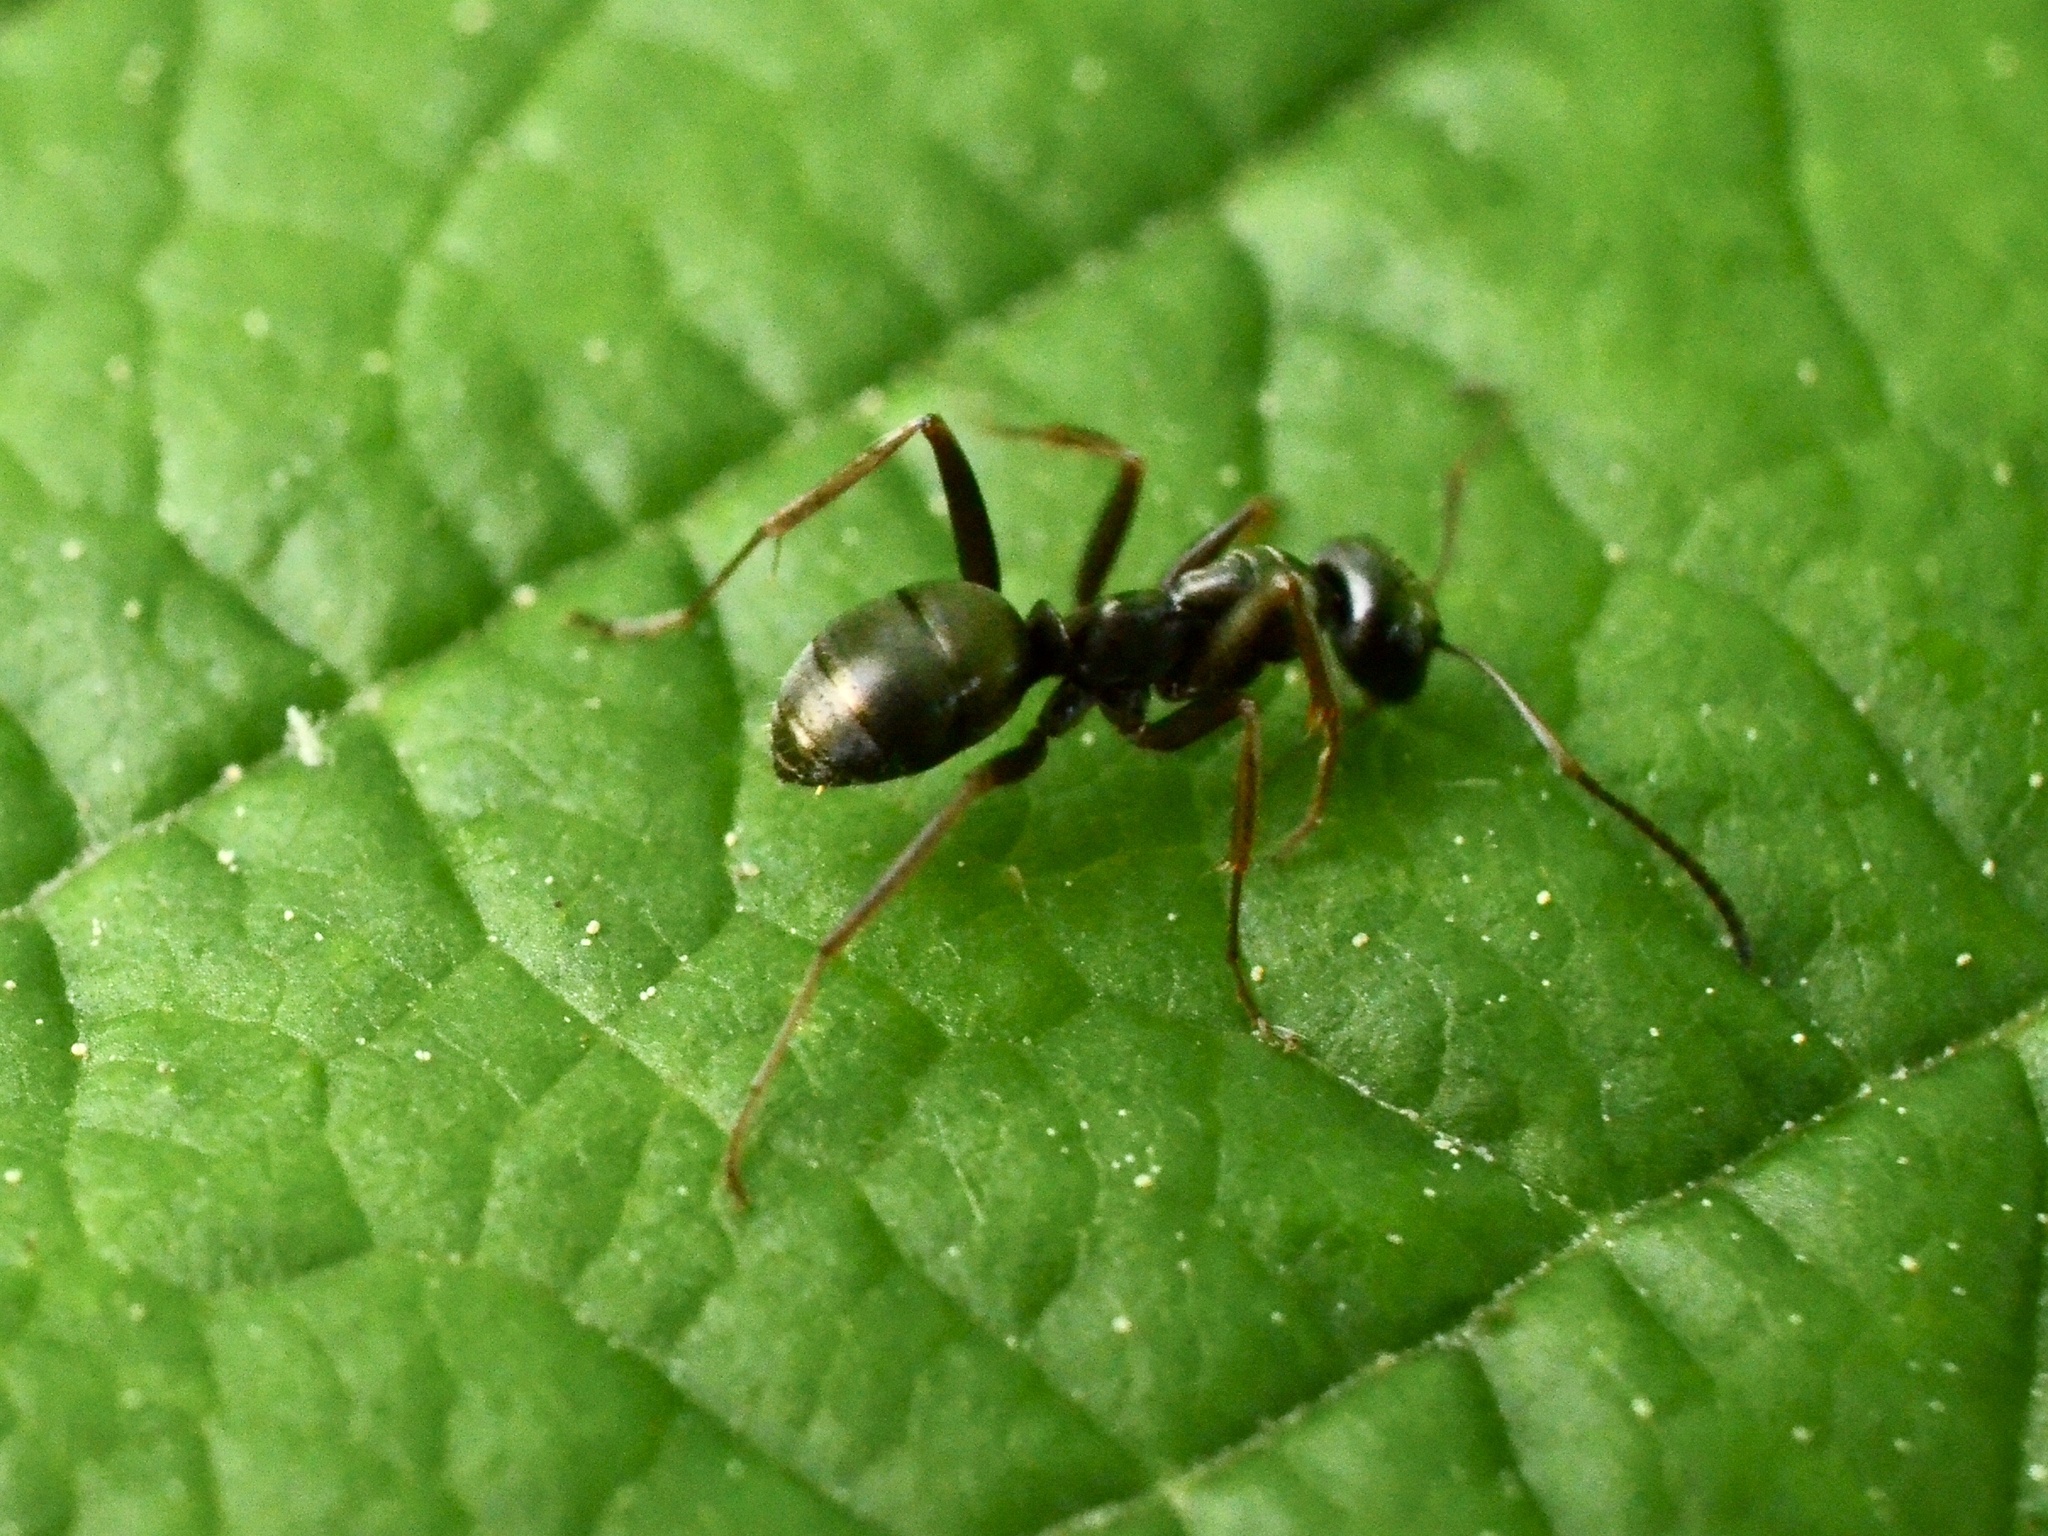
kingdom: Animalia
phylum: Arthropoda
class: Insecta
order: Hymenoptera
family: Formicidae
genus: Formica
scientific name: Formica
